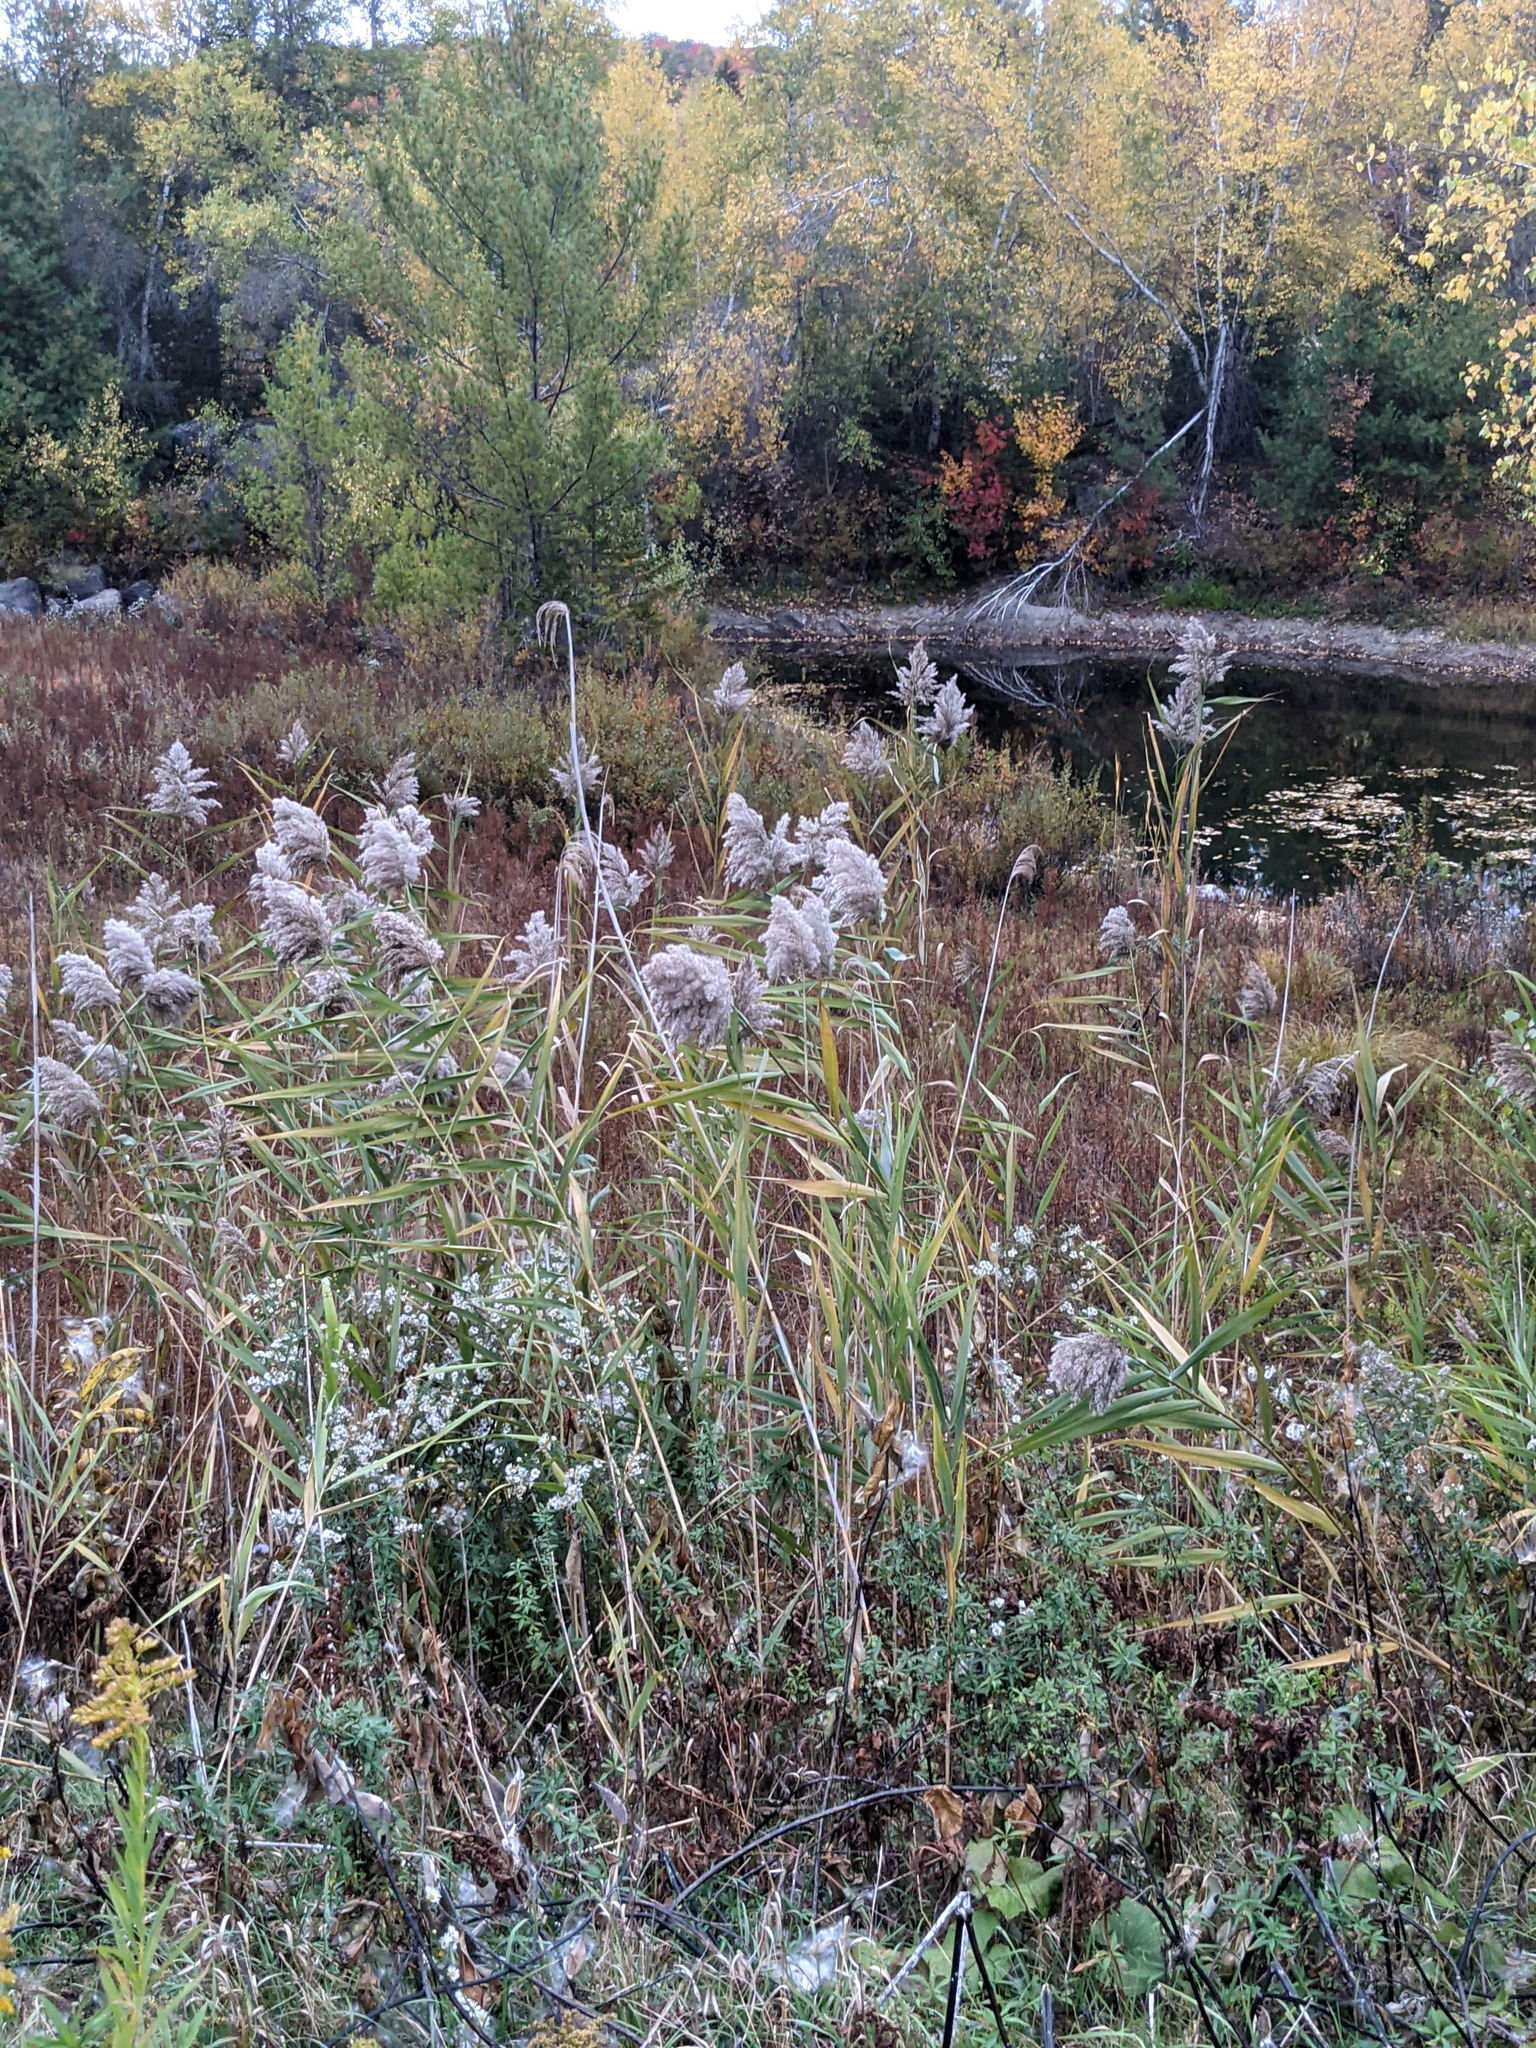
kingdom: Plantae
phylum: Tracheophyta
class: Liliopsida
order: Poales
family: Poaceae
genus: Phragmites
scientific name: Phragmites australis
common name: Common reed
